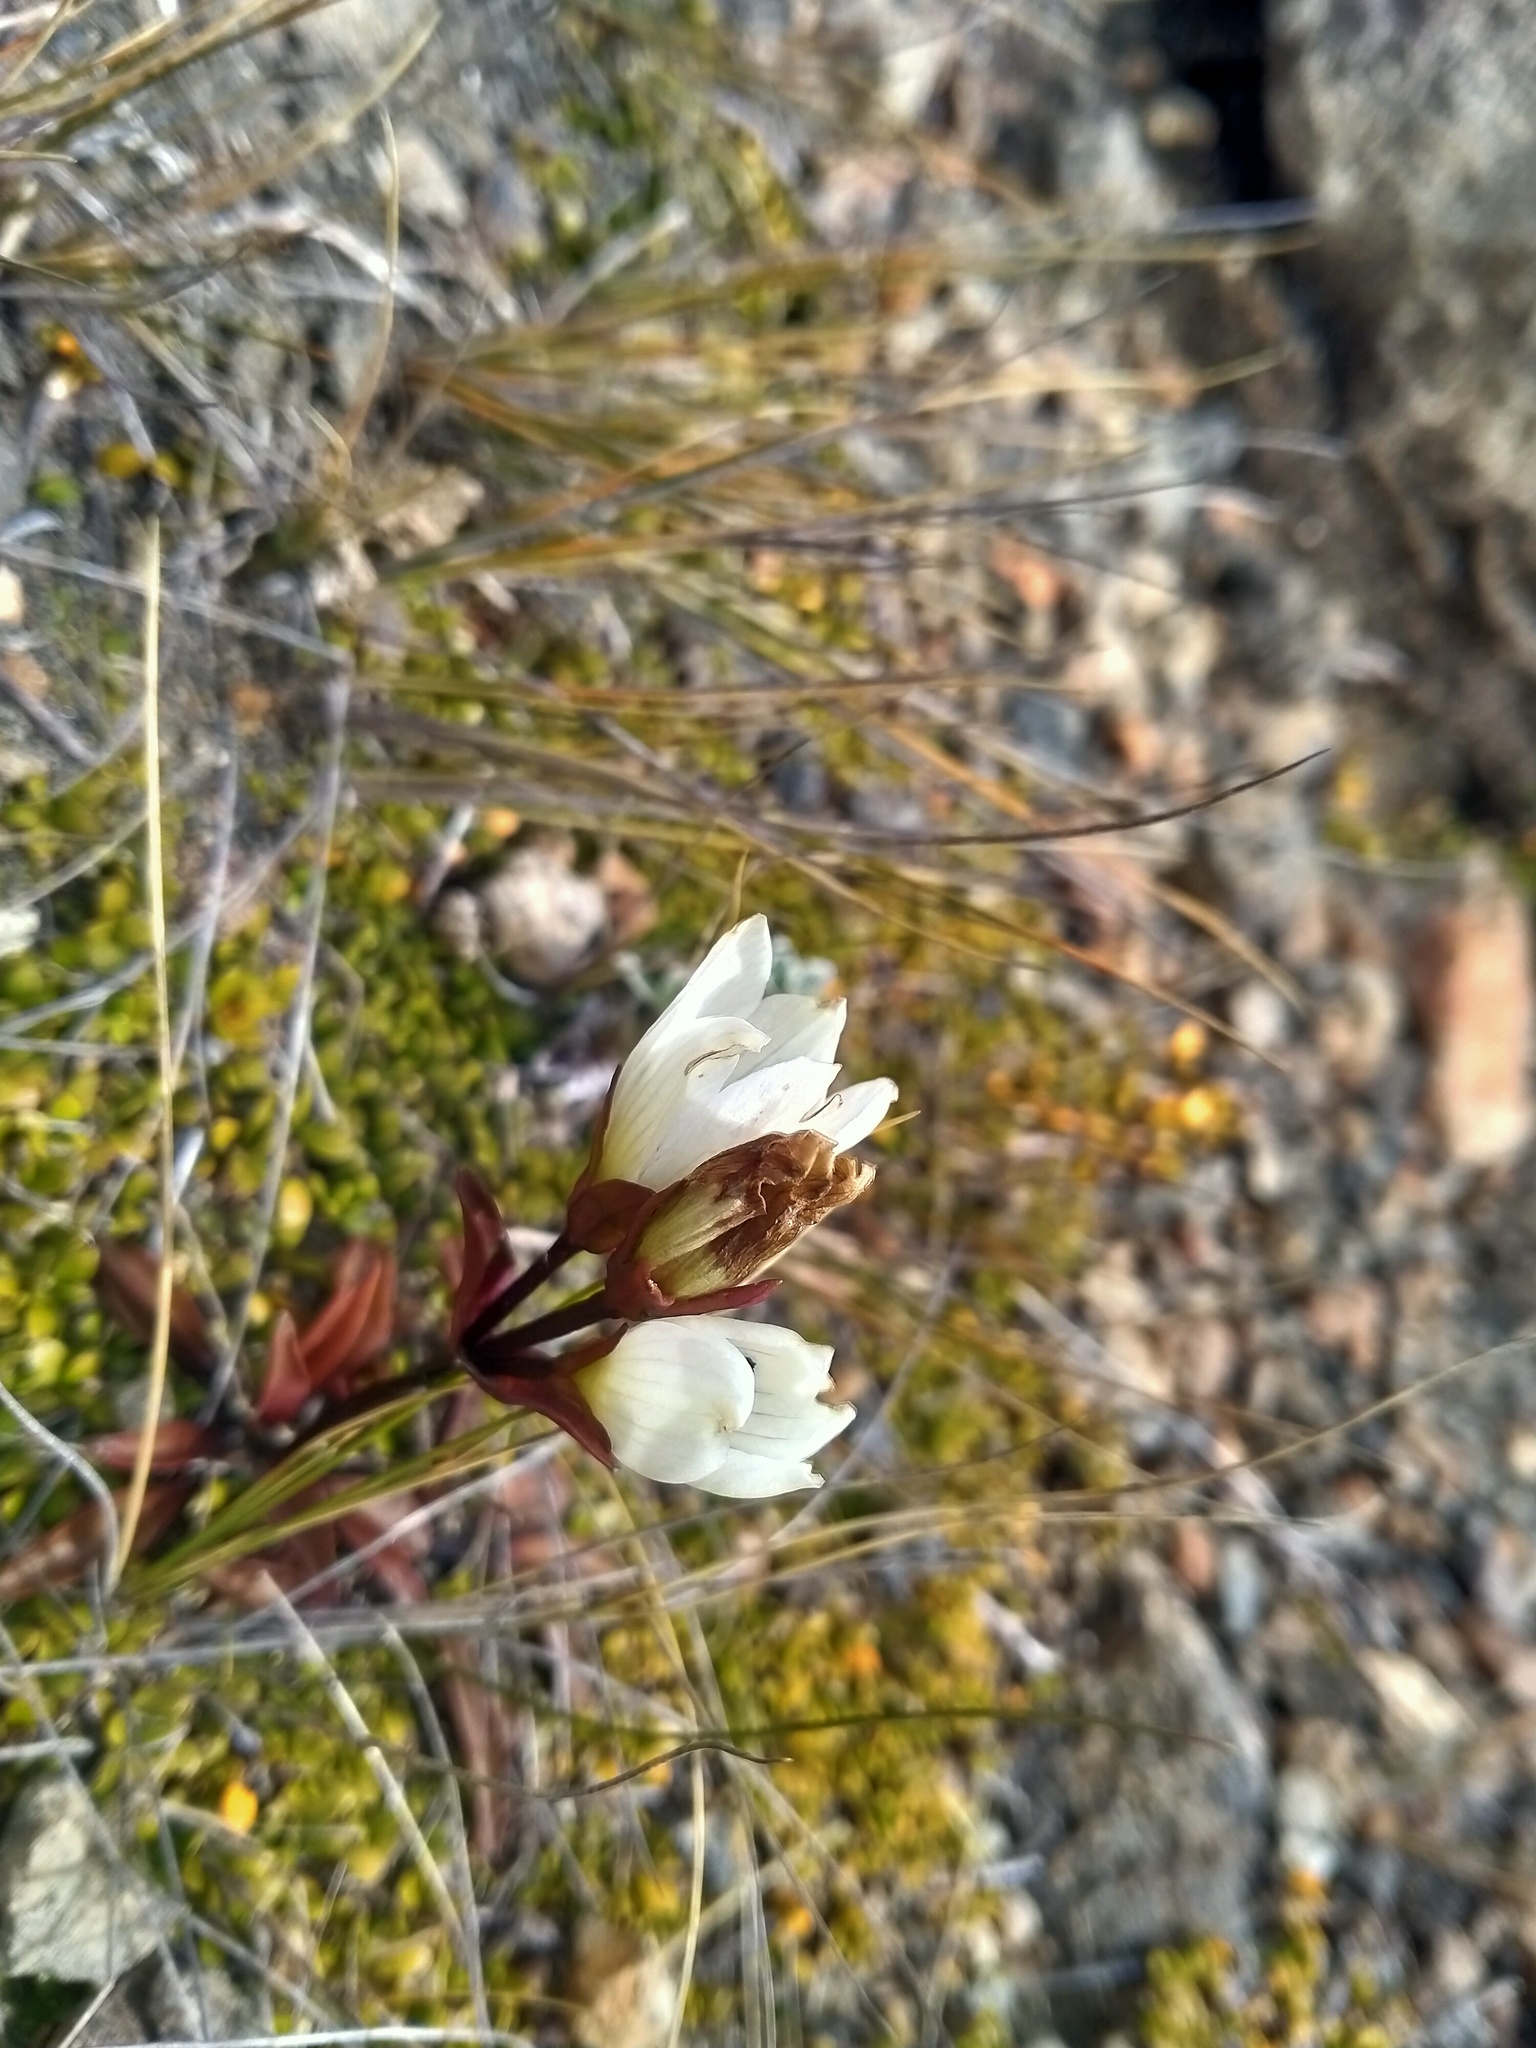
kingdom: Plantae
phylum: Tracheophyta
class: Magnoliopsida
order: Gentianales
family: Gentianaceae
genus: Gentianella
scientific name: Gentianella bellidifolia
